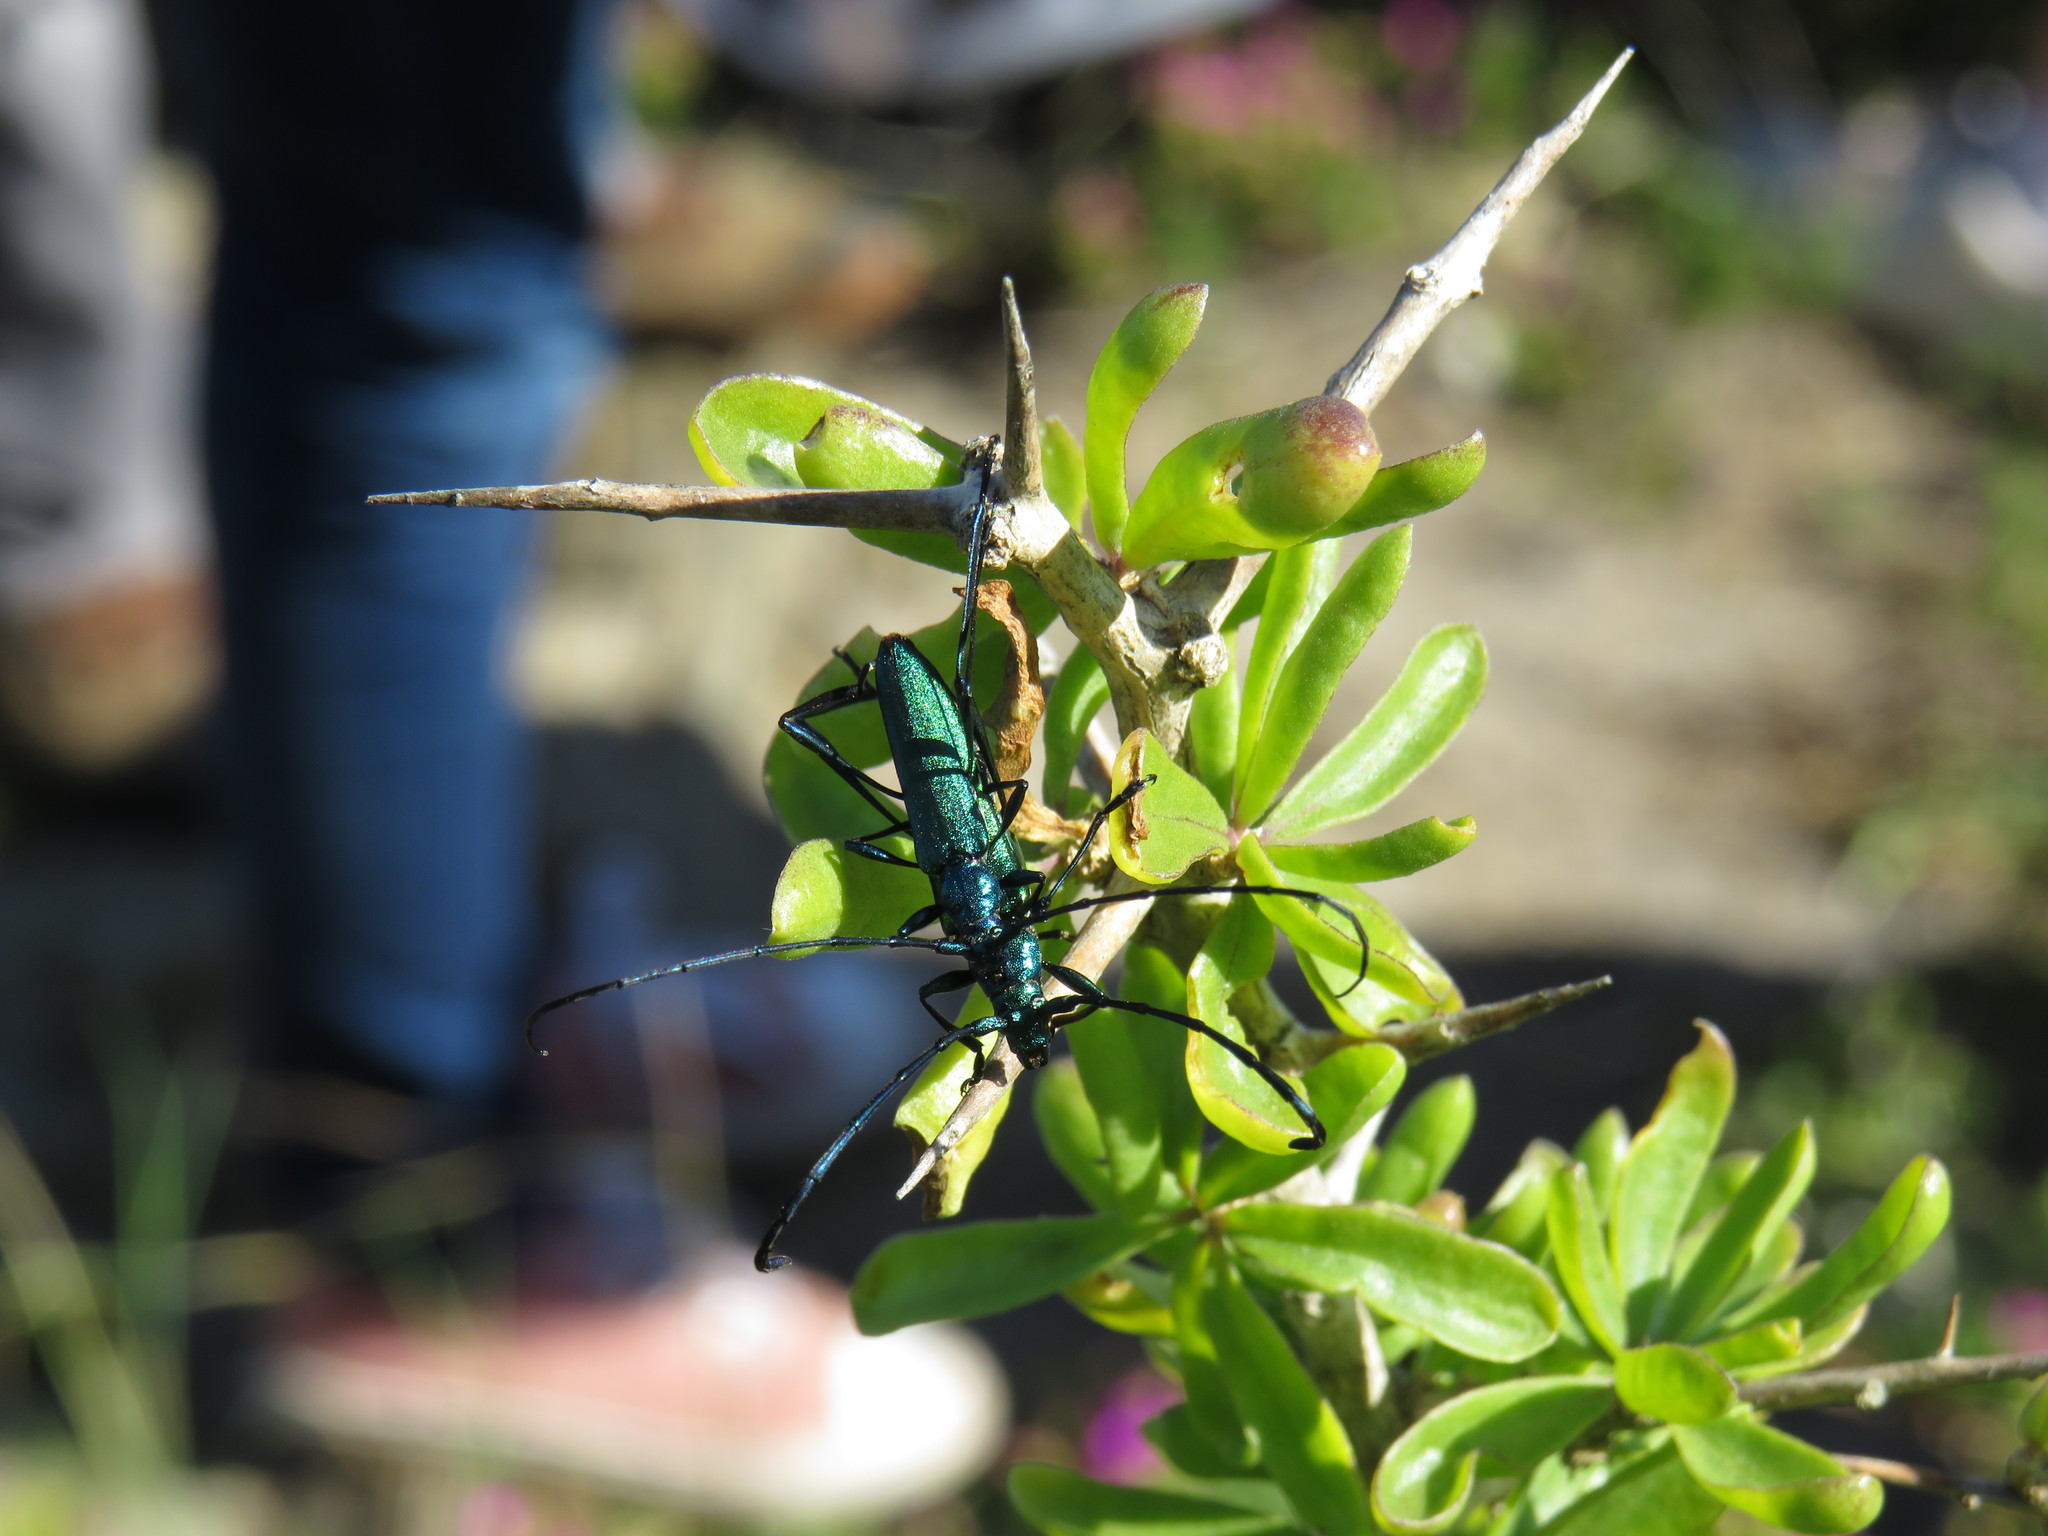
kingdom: Animalia
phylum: Arthropoda
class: Insecta
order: Coleoptera
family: Cerambycidae
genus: Promeces
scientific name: Promeces longipes
